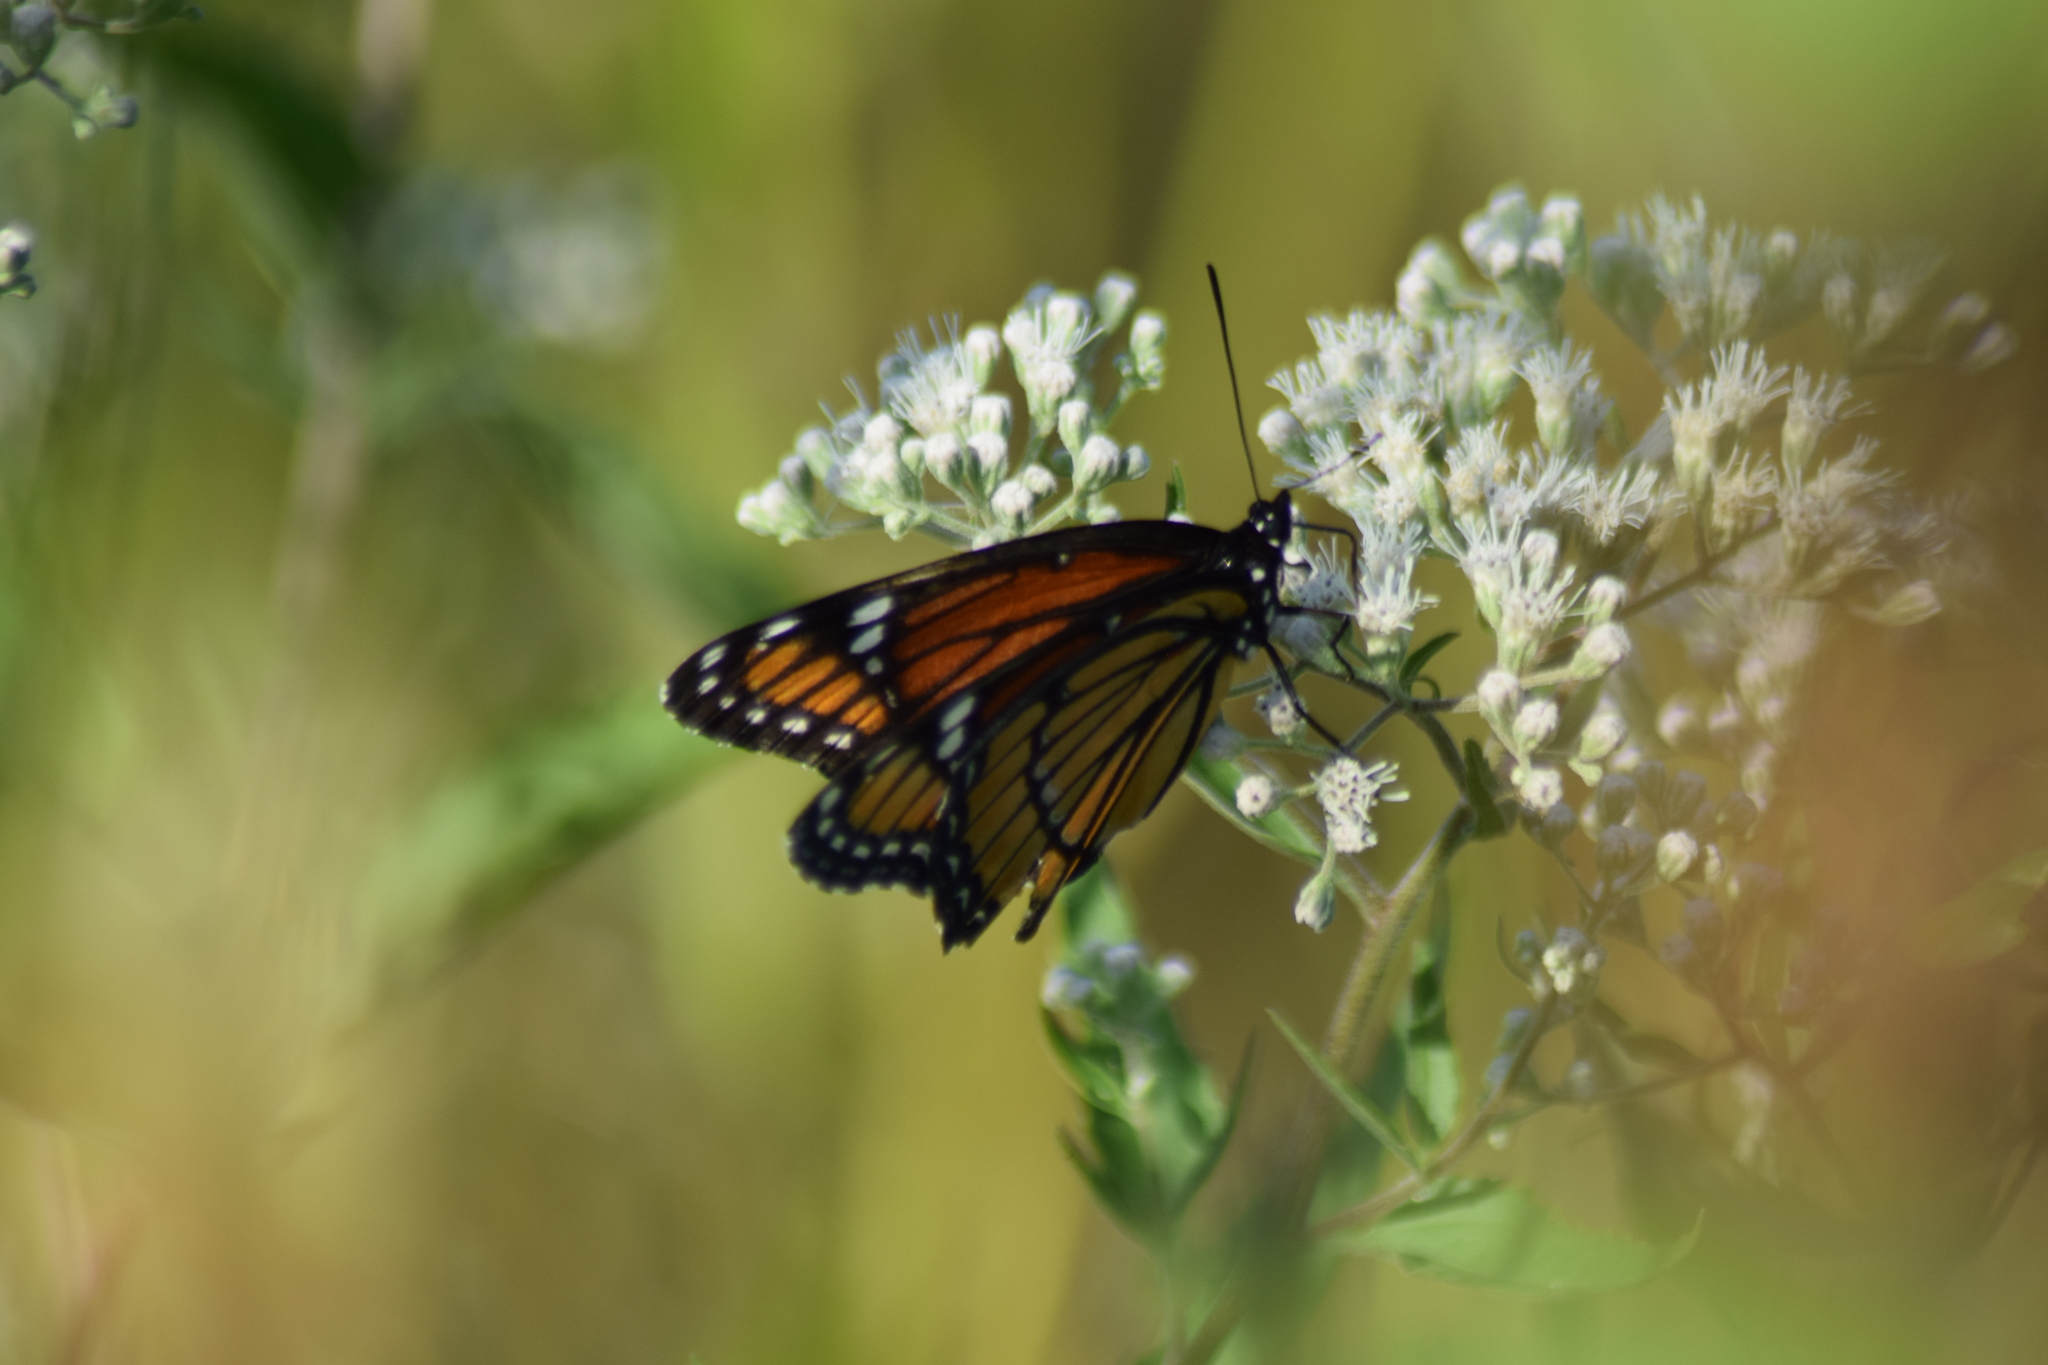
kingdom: Animalia
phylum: Arthropoda
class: Insecta
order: Lepidoptera
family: Nymphalidae
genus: Limenitis
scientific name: Limenitis archippus
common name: Viceroy
